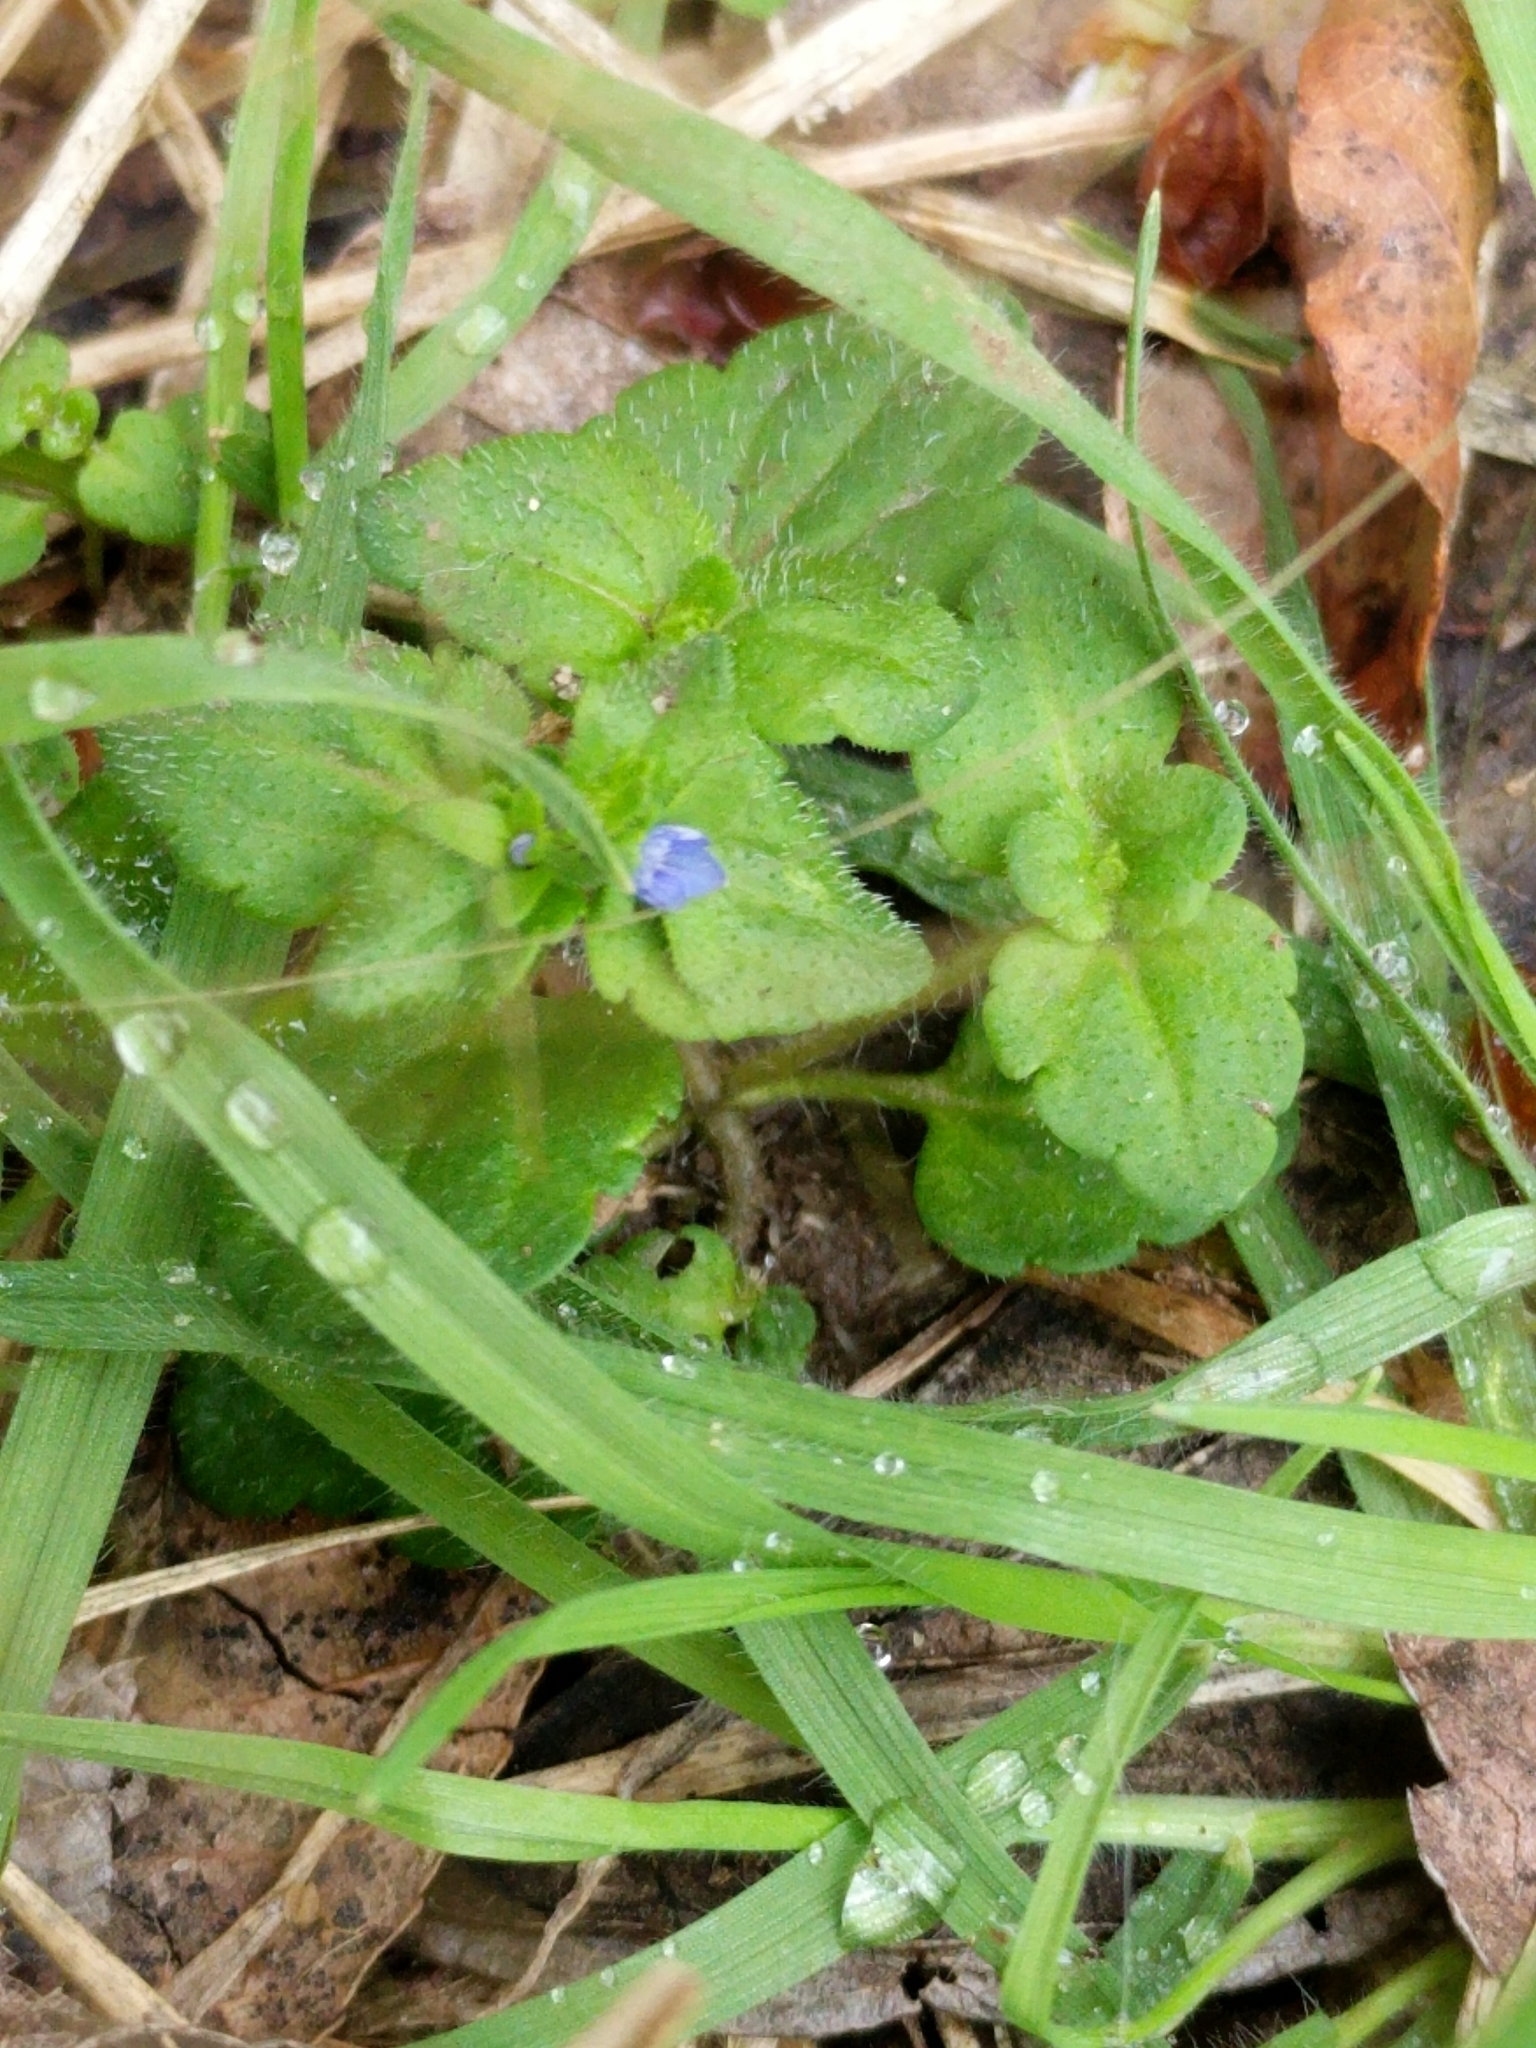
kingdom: Plantae
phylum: Tracheophyta
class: Magnoliopsida
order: Lamiales
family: Plantaginaceae
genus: Veronica
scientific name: Veronica arvensis
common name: Corn speedwell
